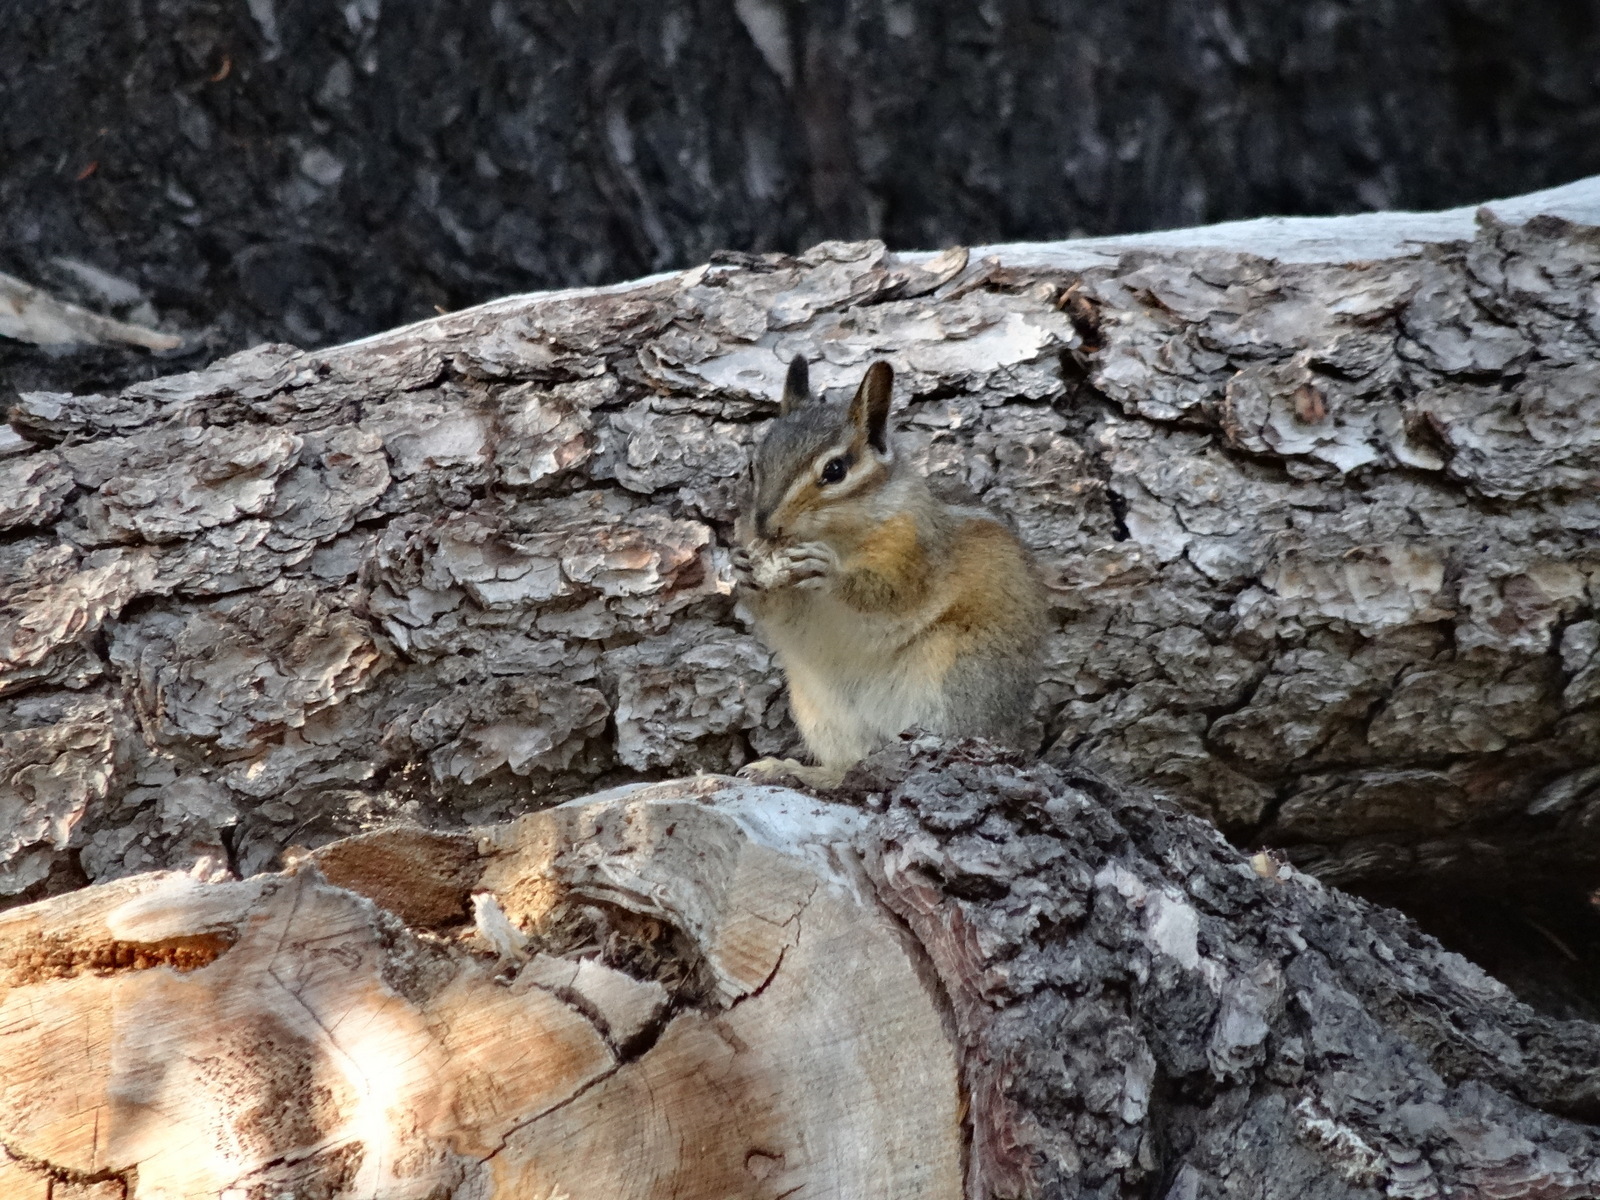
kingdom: Animalia
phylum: Chordata
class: Mammalia
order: Rodentia
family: Sciuridae
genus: Tamias
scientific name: Tamias amoenus
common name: Yellow-pine chipmunk
